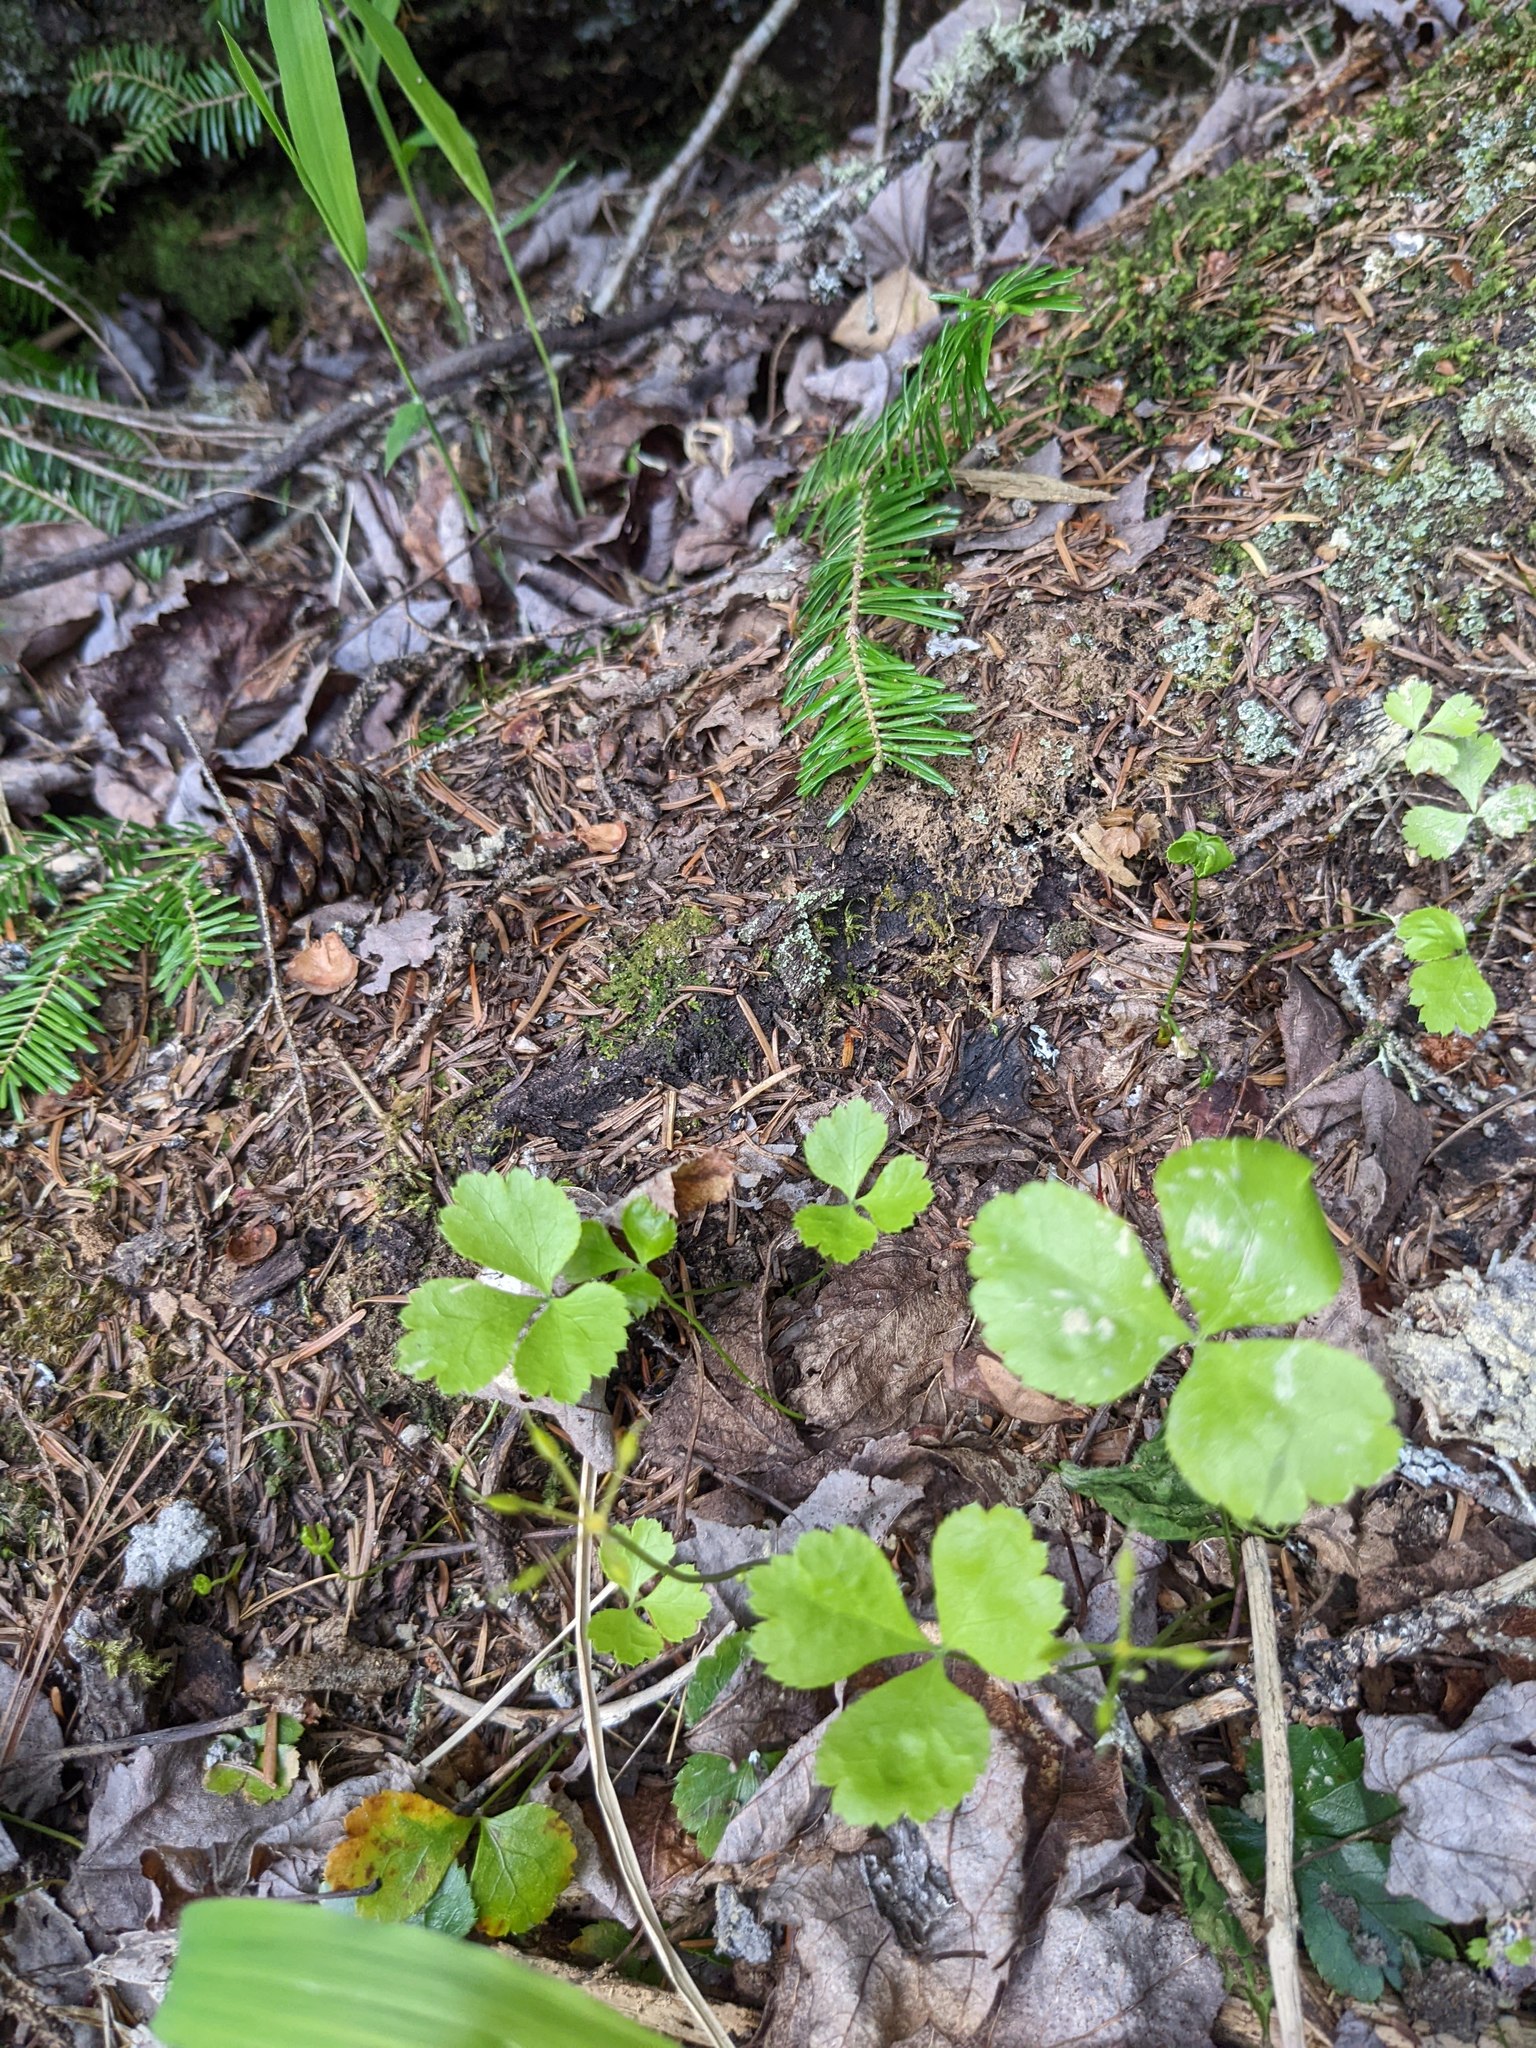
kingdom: Plantae
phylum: Tracheophyta
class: Magnoliopsida
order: Ranunculales
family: Ranunculaceae
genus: Coptis
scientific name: Coptis trifolia
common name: Canker-root
